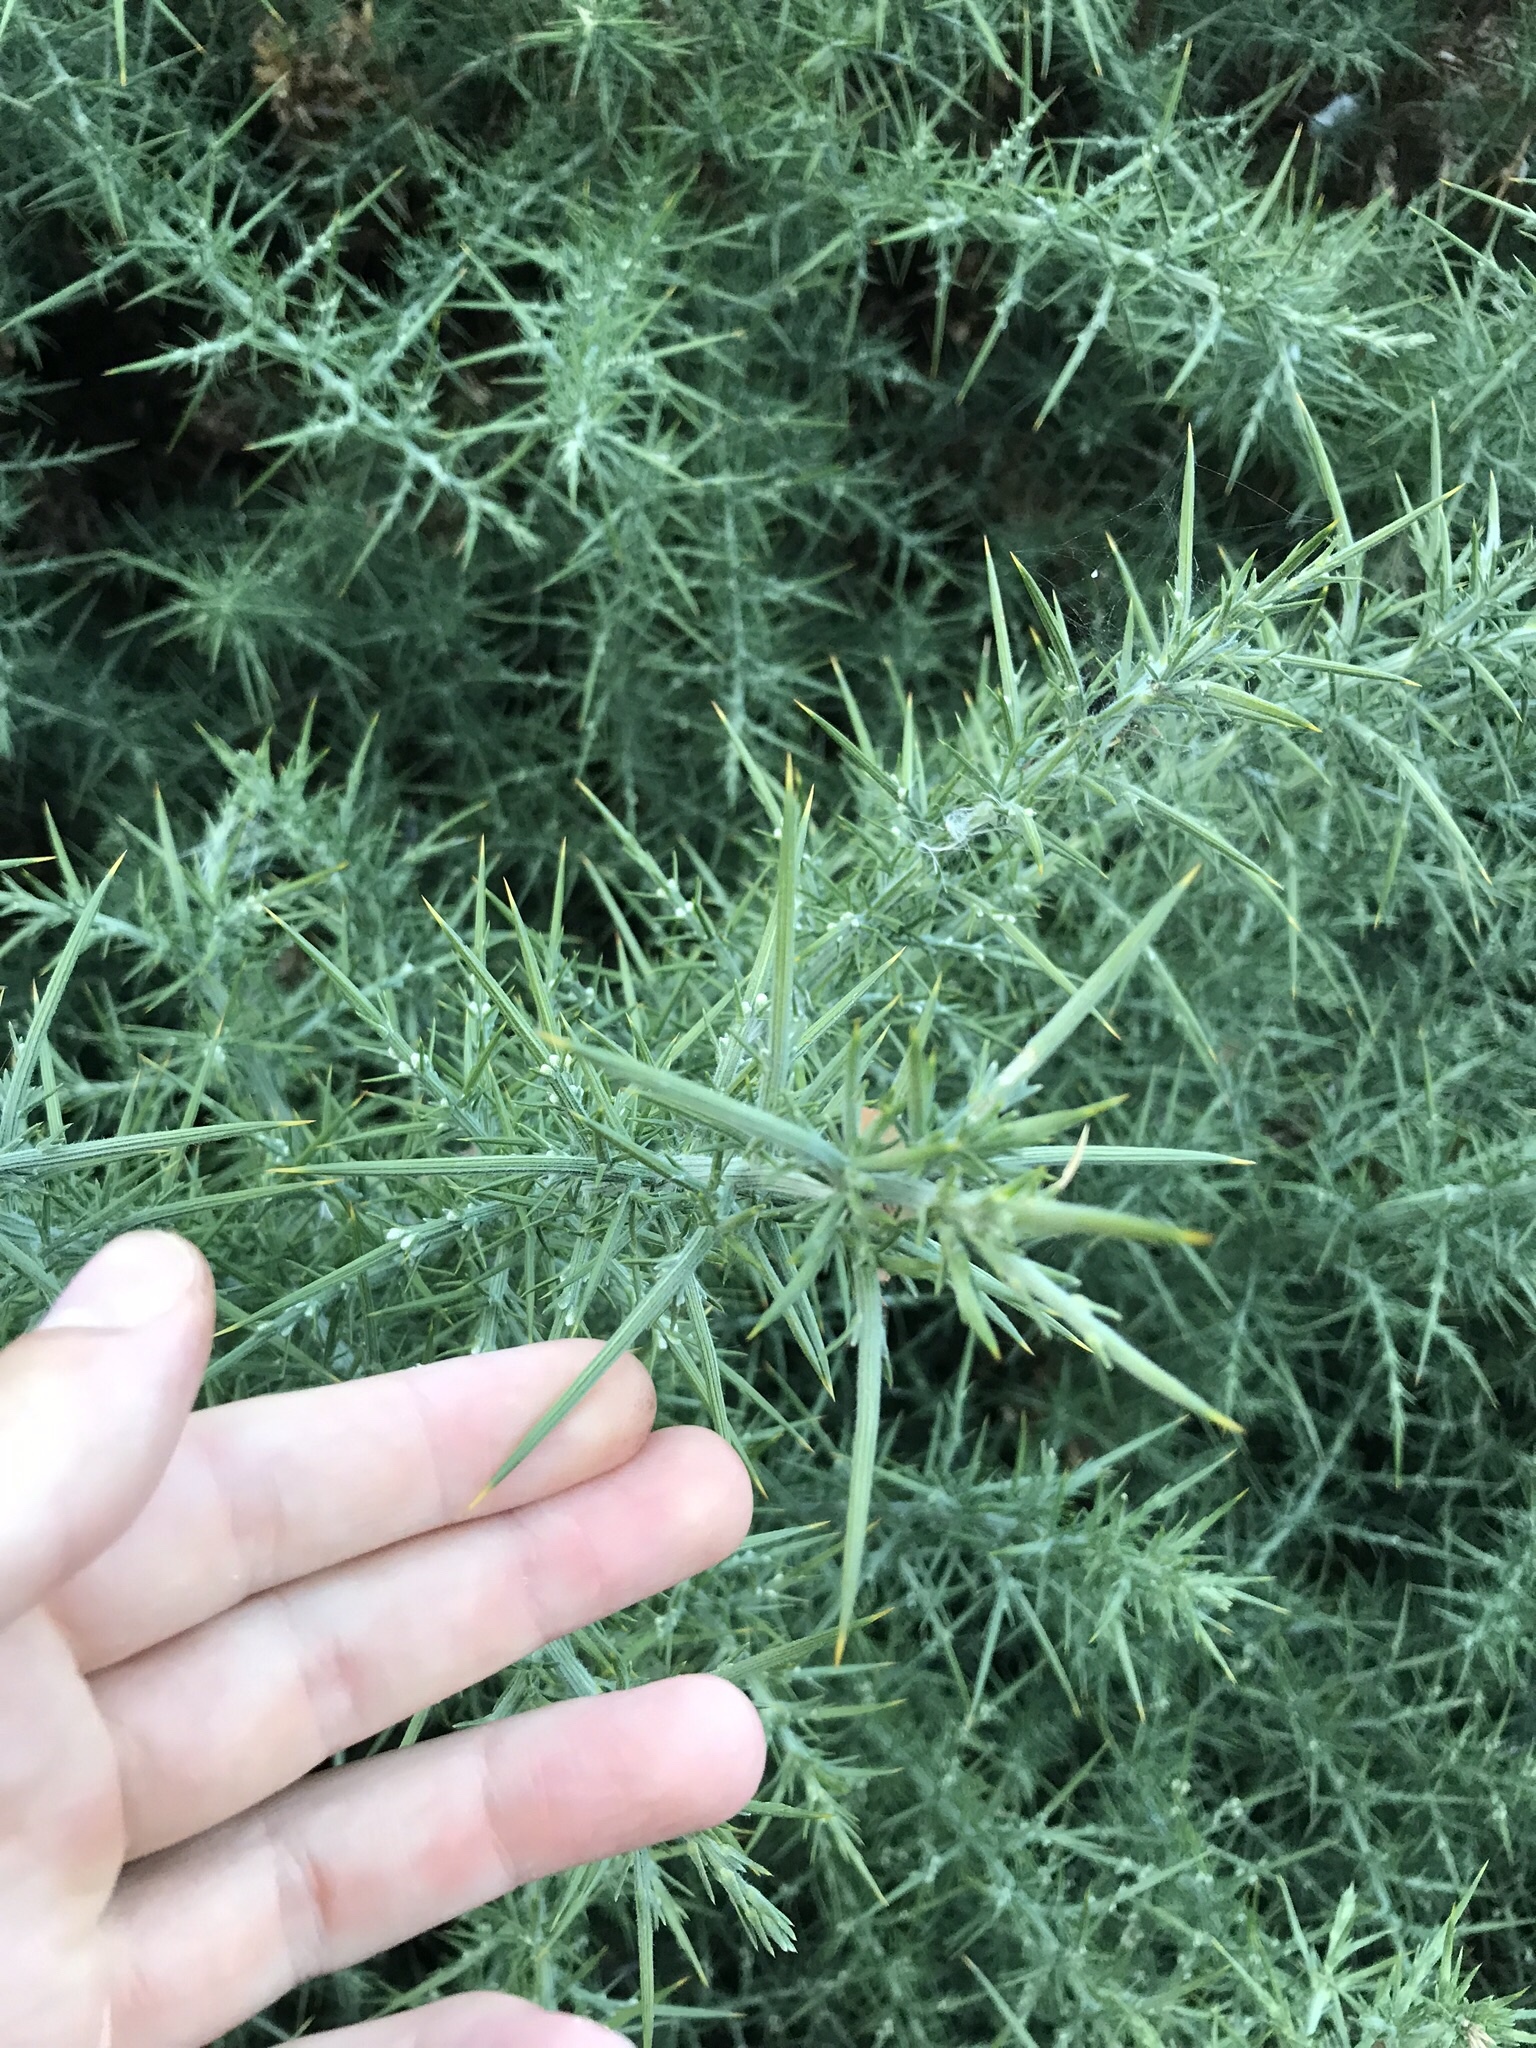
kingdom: Plantae
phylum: Tracheophyta
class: Magnoliopsida
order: Fabales
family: Fabaceae
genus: Ulex
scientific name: Ulex europaeus
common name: Common gorse
